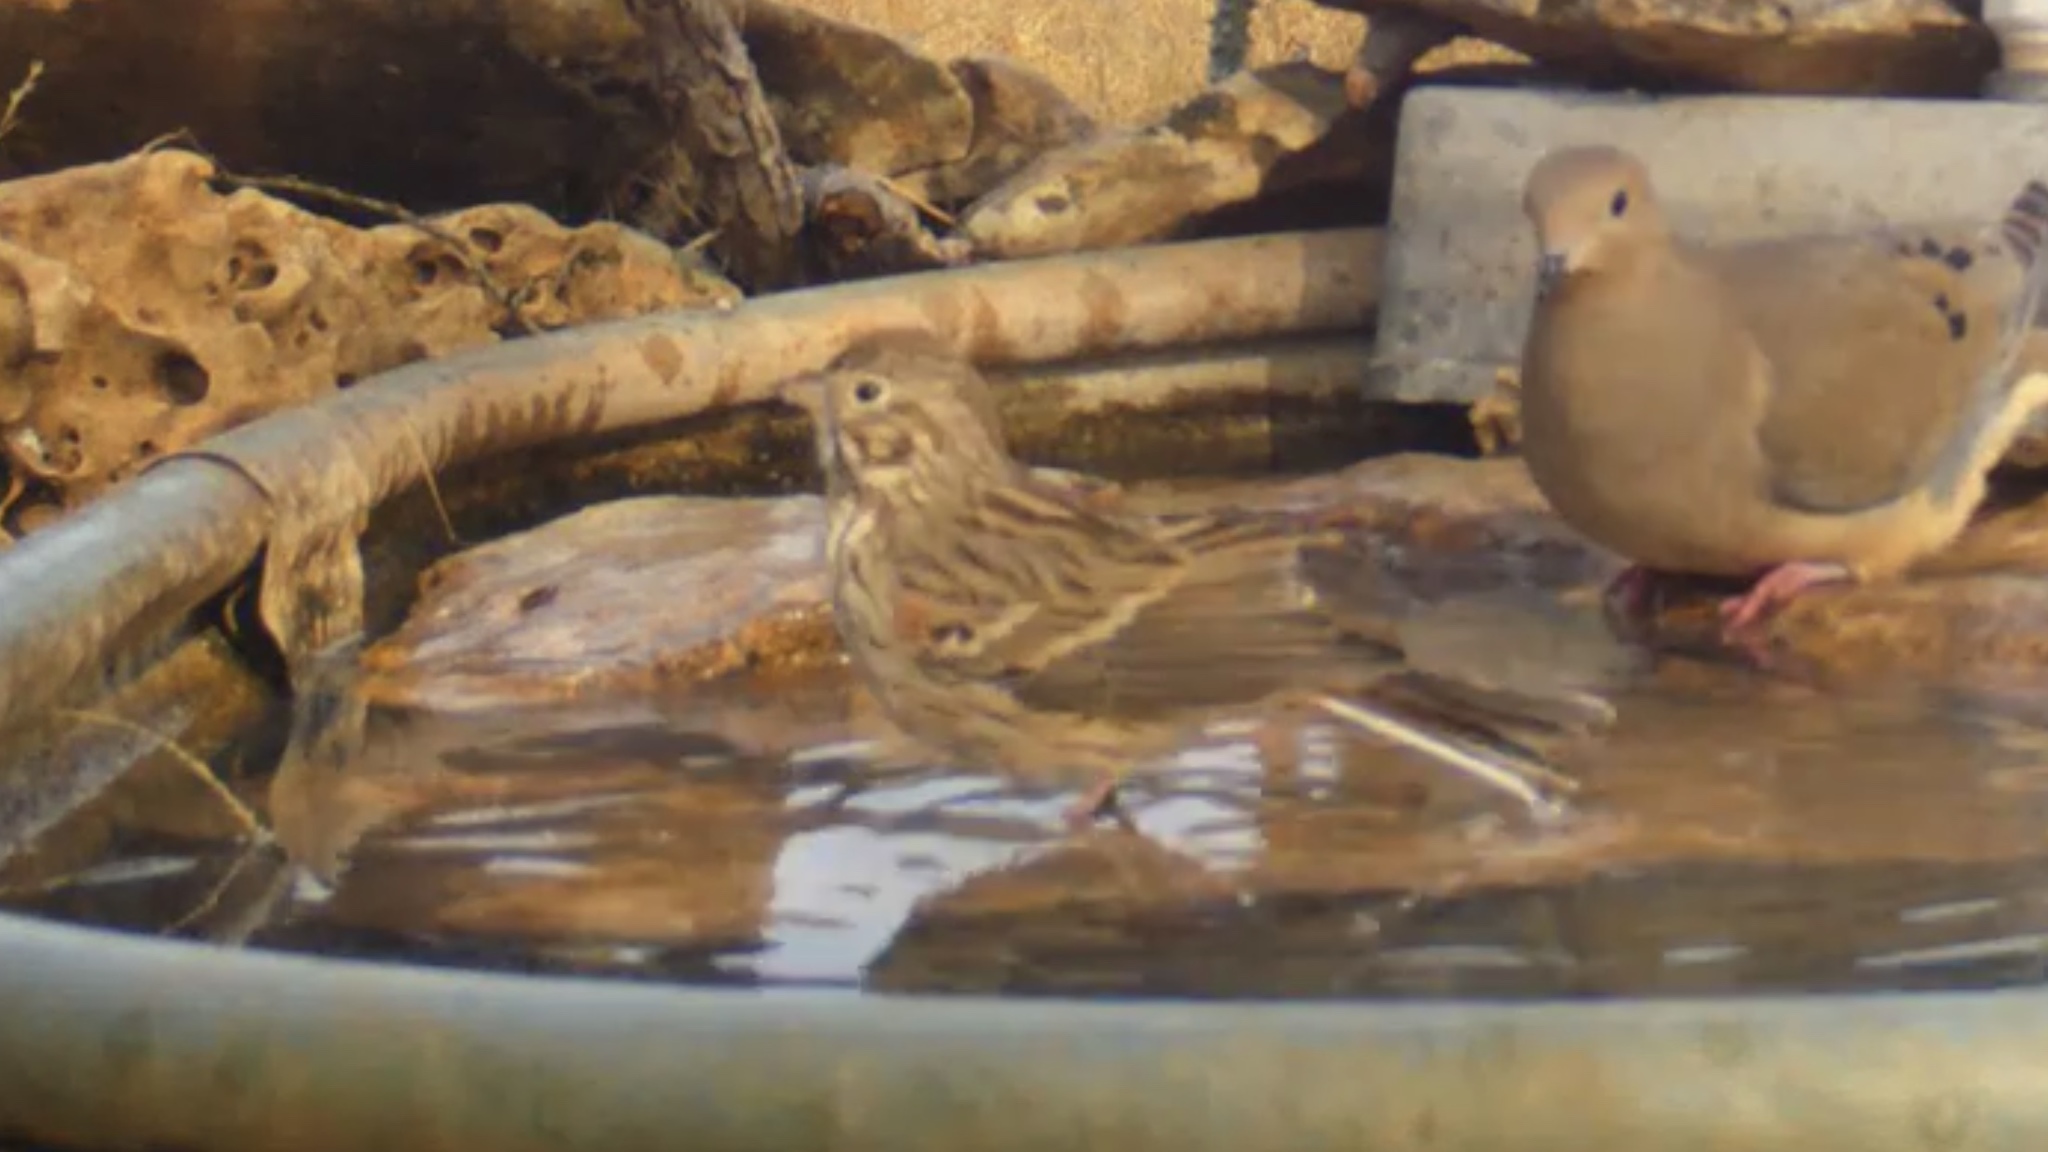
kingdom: Animalia
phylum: Chordata
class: Aves
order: Passeriformes
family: Passerellidae
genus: Pooecetes
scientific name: Pooecetes gramineus
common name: Vesper sparrow
